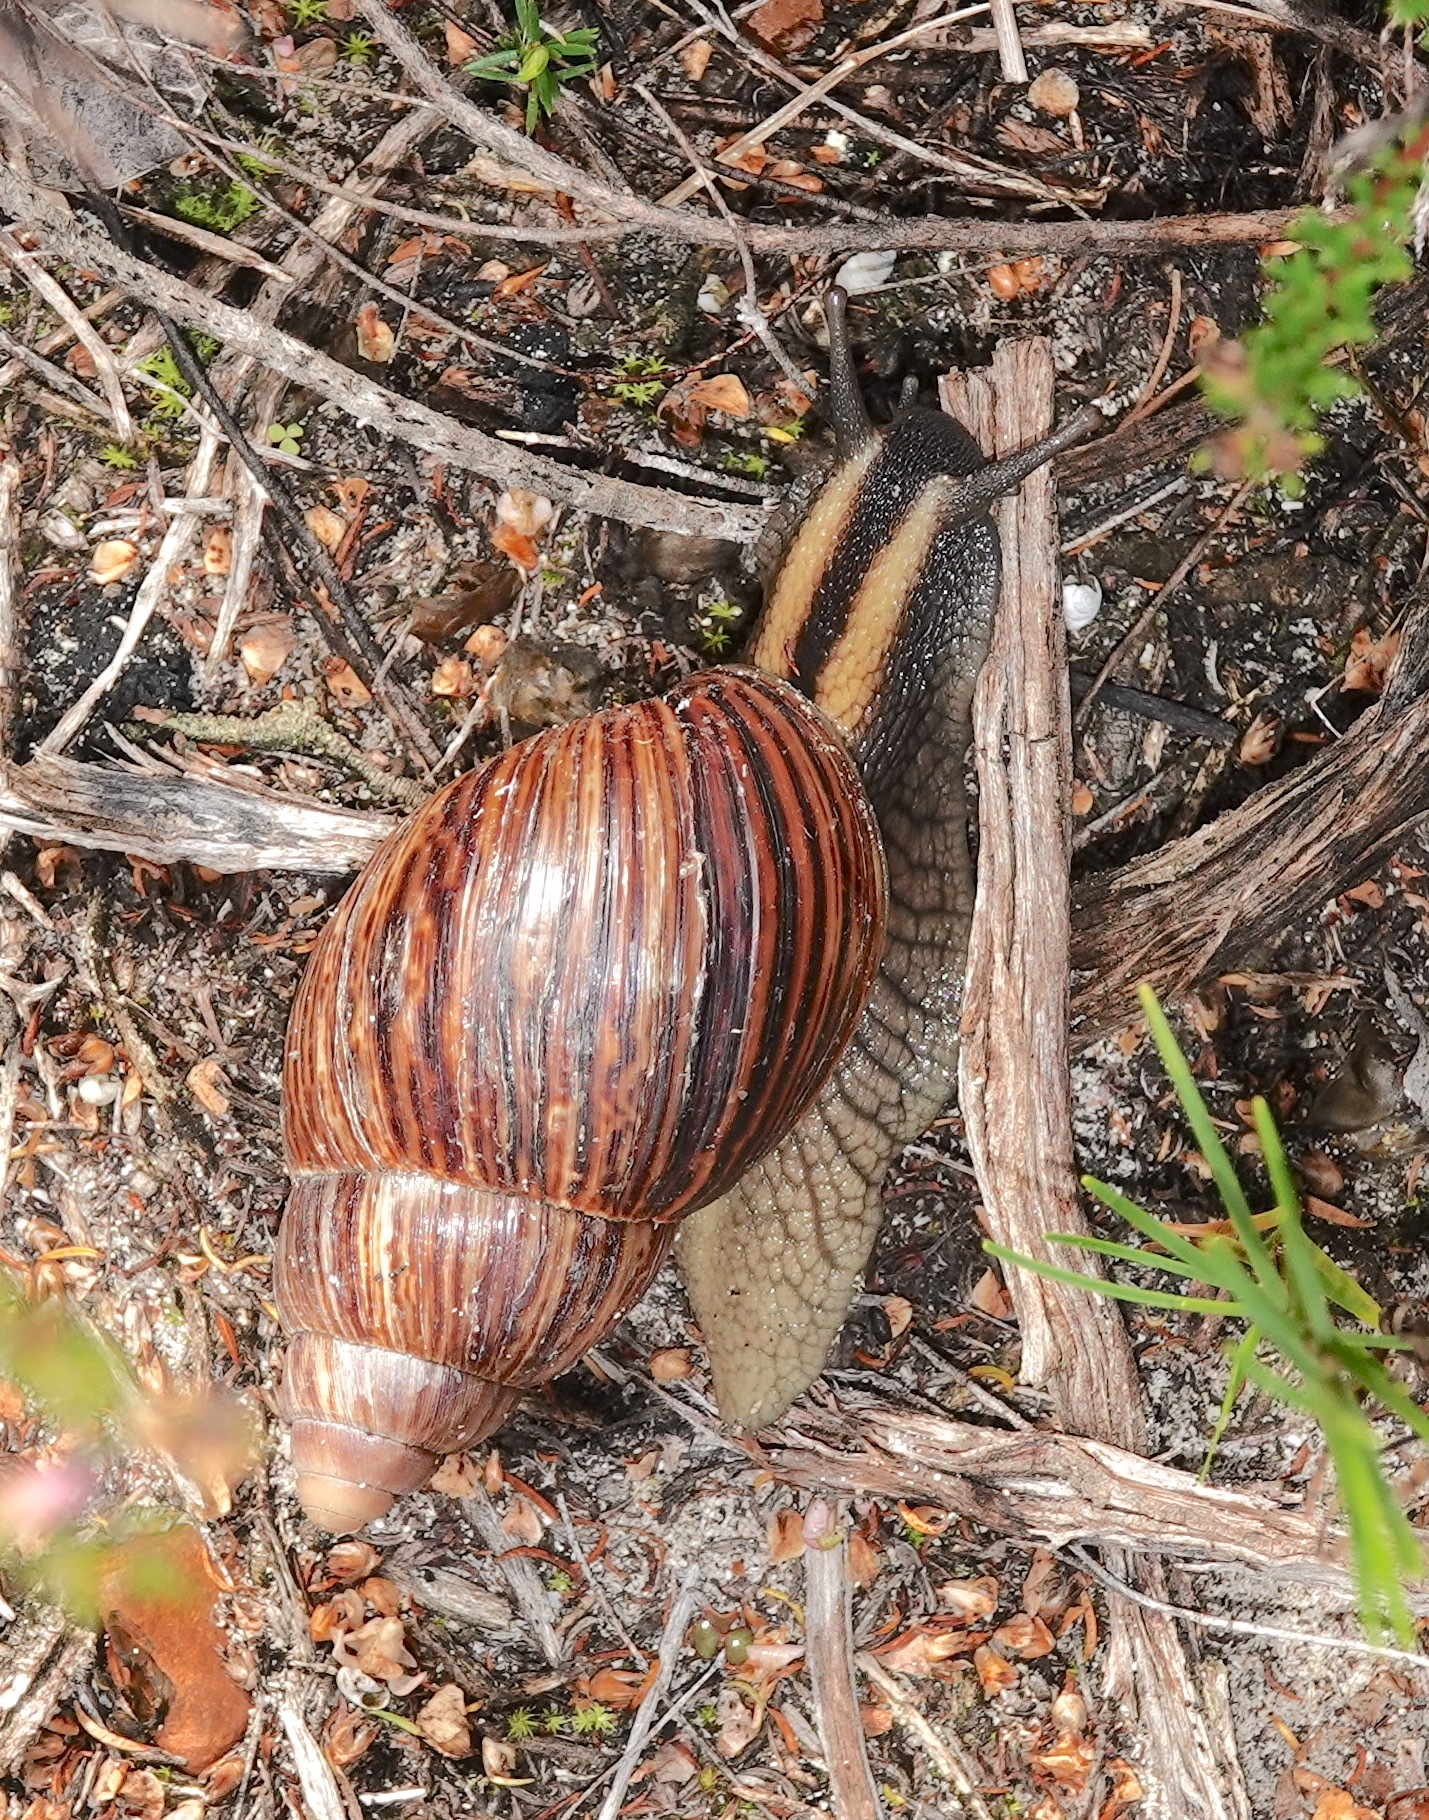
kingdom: Animalia
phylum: Mollusca
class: Gastropoda
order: Stylommatophora
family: Achatinidae
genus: Cochlitoma
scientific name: Cochlitoma zebra
